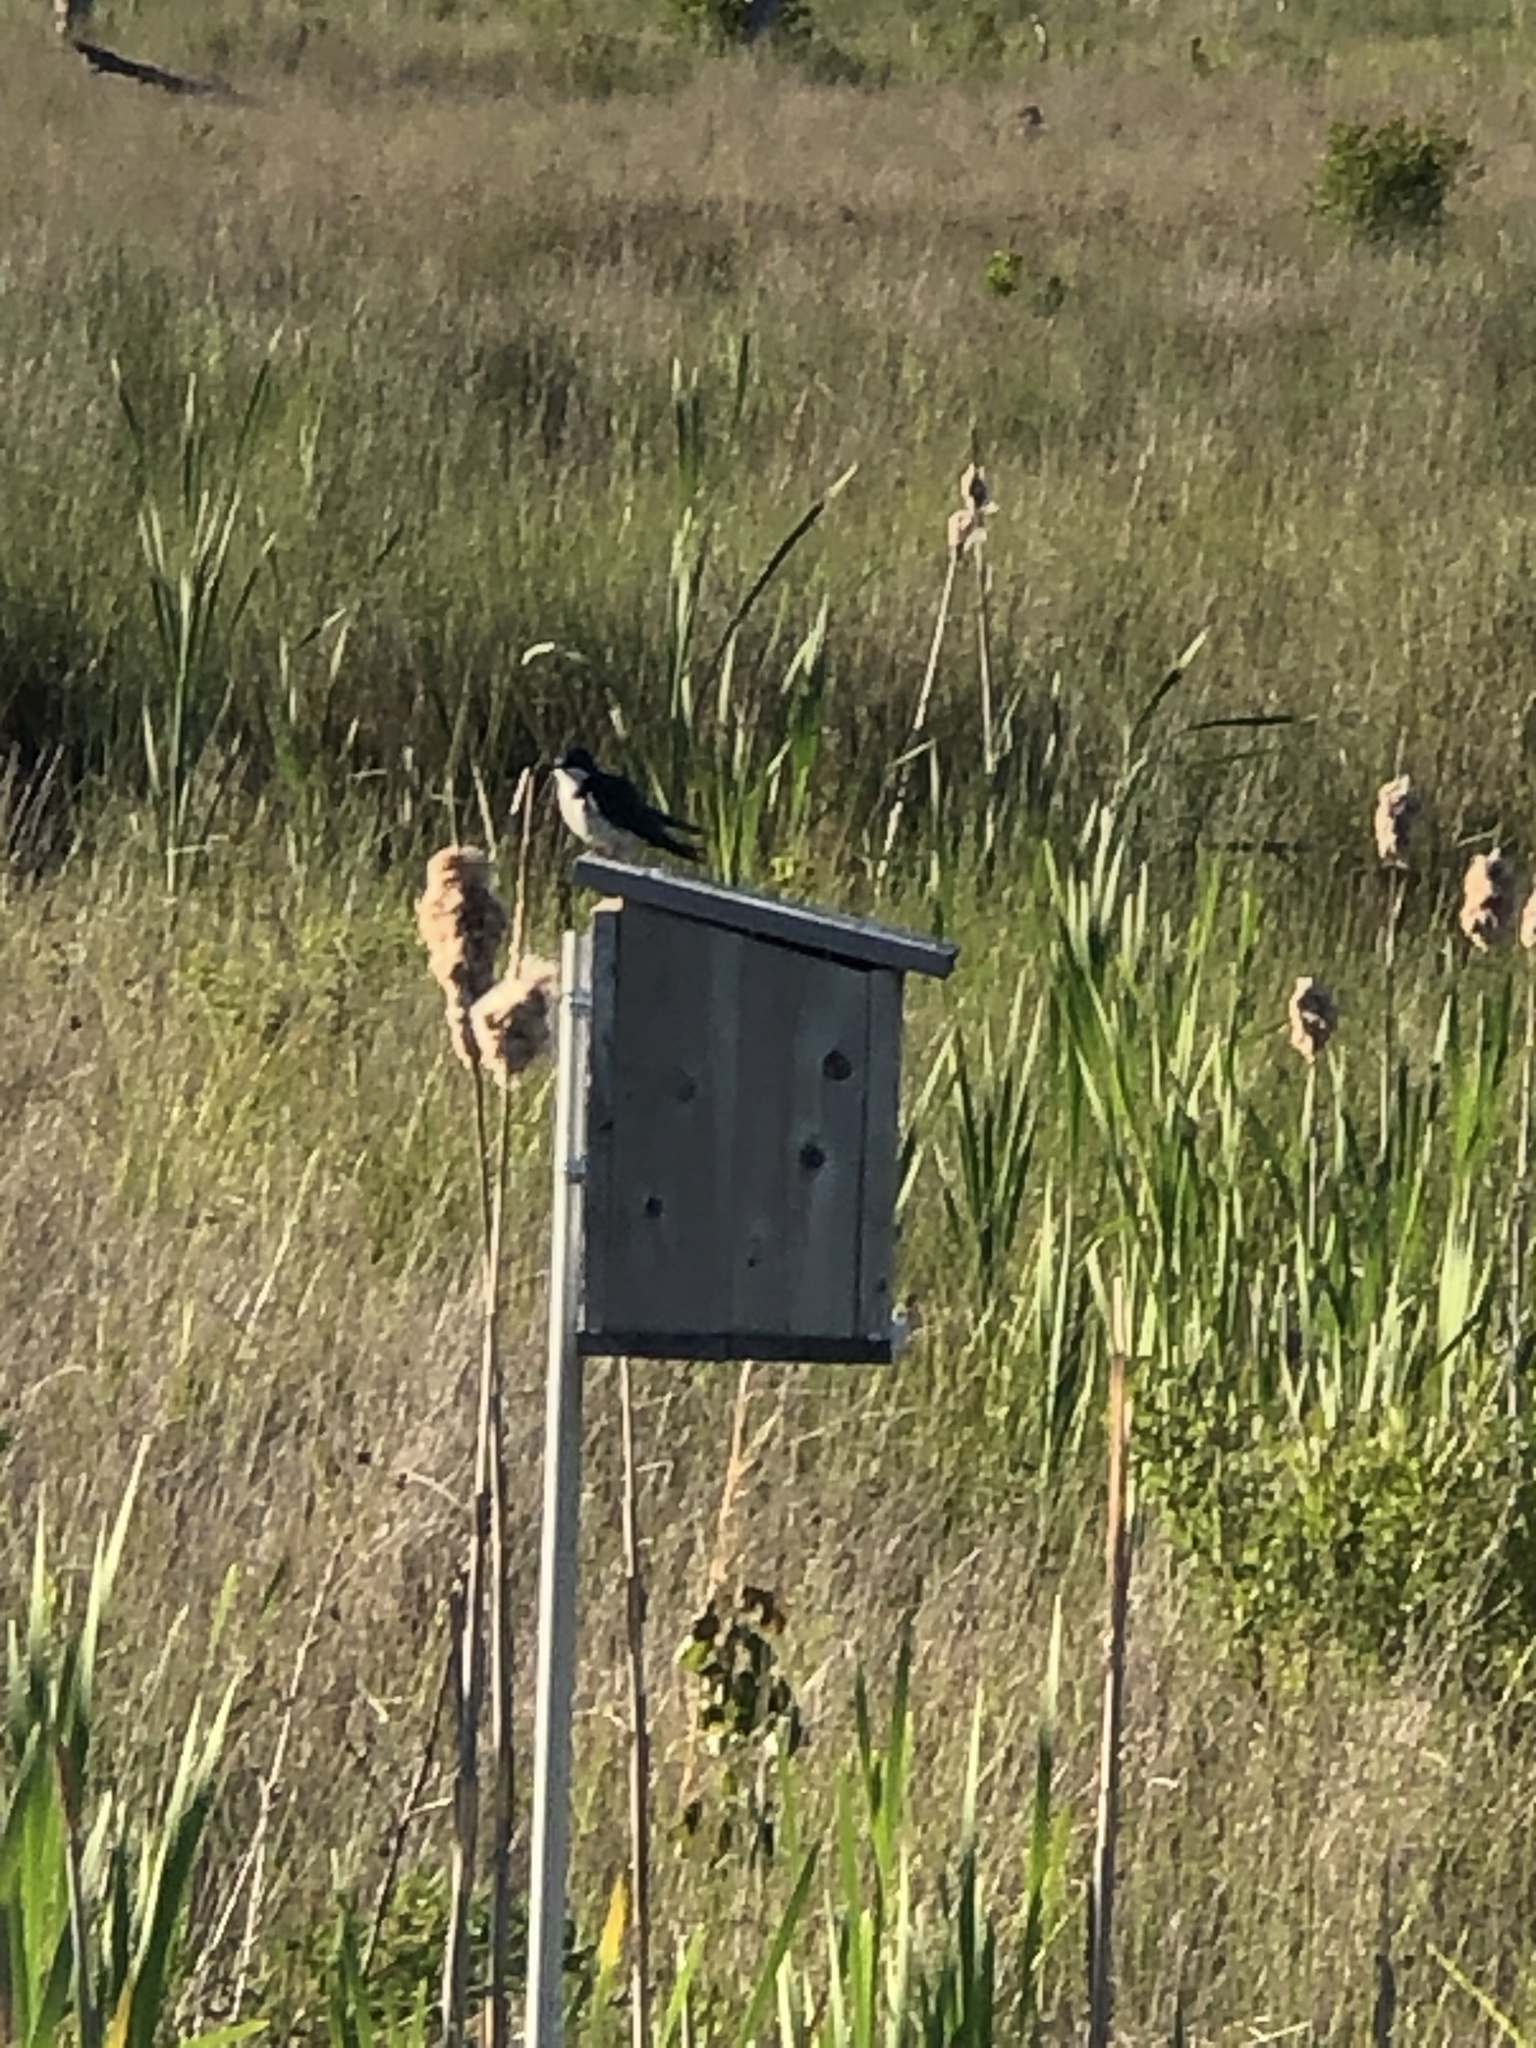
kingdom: Animalia
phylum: Chordata
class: Aves
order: Passeriformes
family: Hirundinidae
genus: Tachycineta
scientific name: Tachycineta bicolor
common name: Tree swallow
